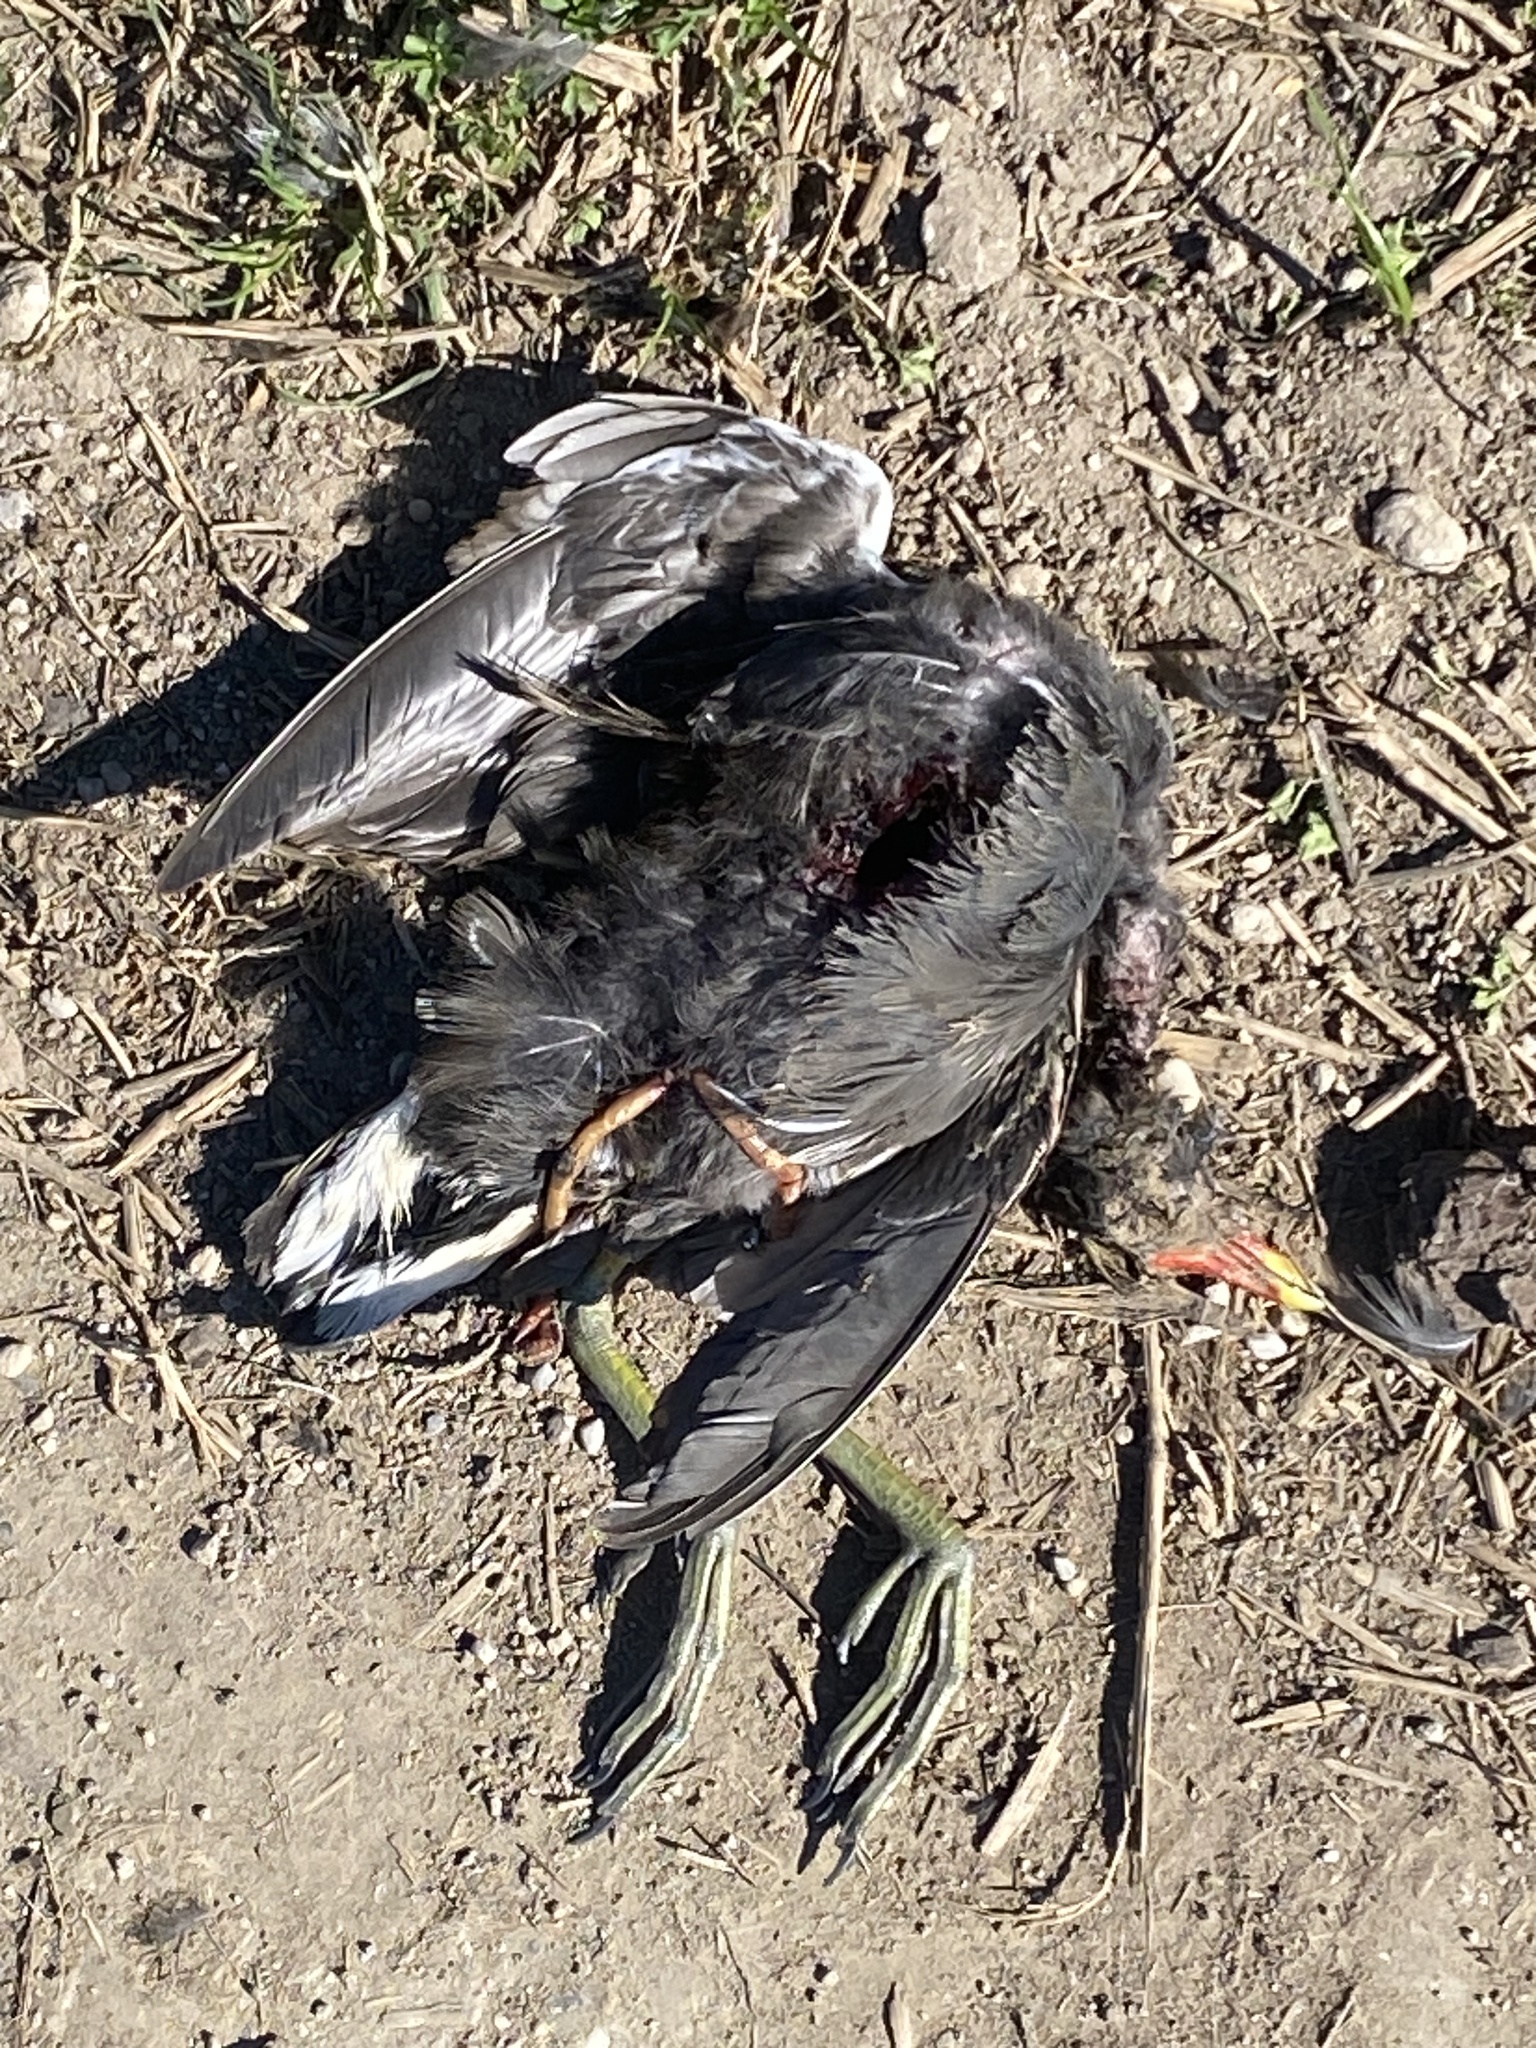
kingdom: Animalia
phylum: Chordata
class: Aves
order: Gruiformes
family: Rallidae
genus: Gallinula
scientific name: Gallinula chloropus
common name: Common moorhen
